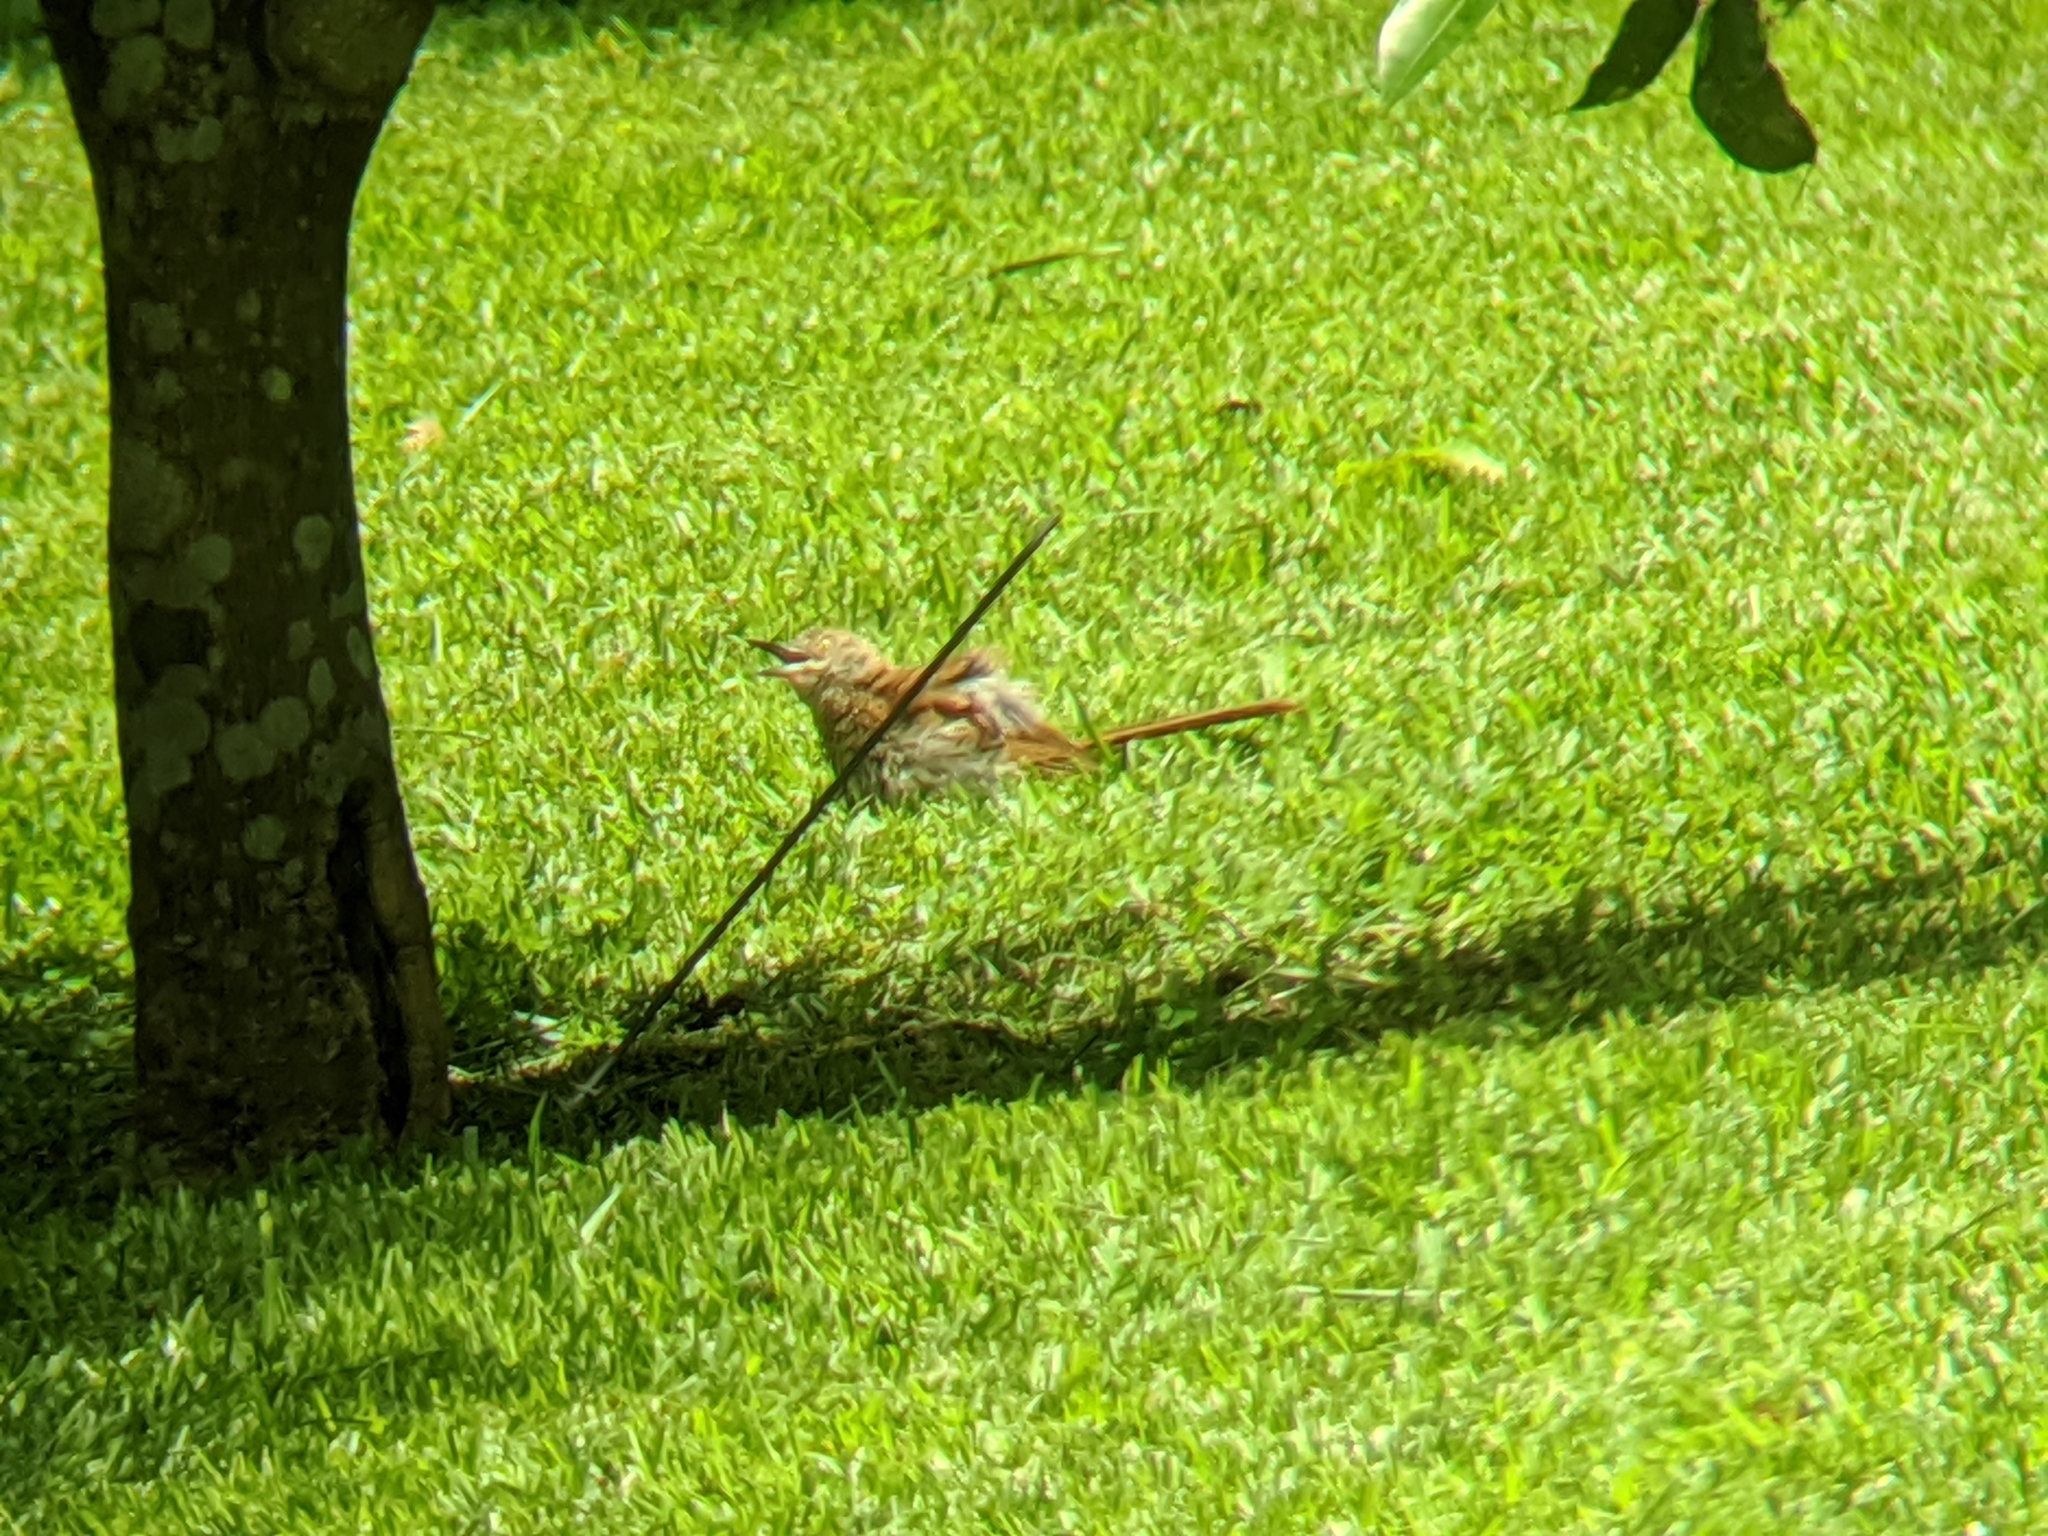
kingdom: Animalia
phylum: Chordata
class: Aves
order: Passeriformes
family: Mimidae
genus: Toxostoma
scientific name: Toxostoma rufum
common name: Brown thrasher
